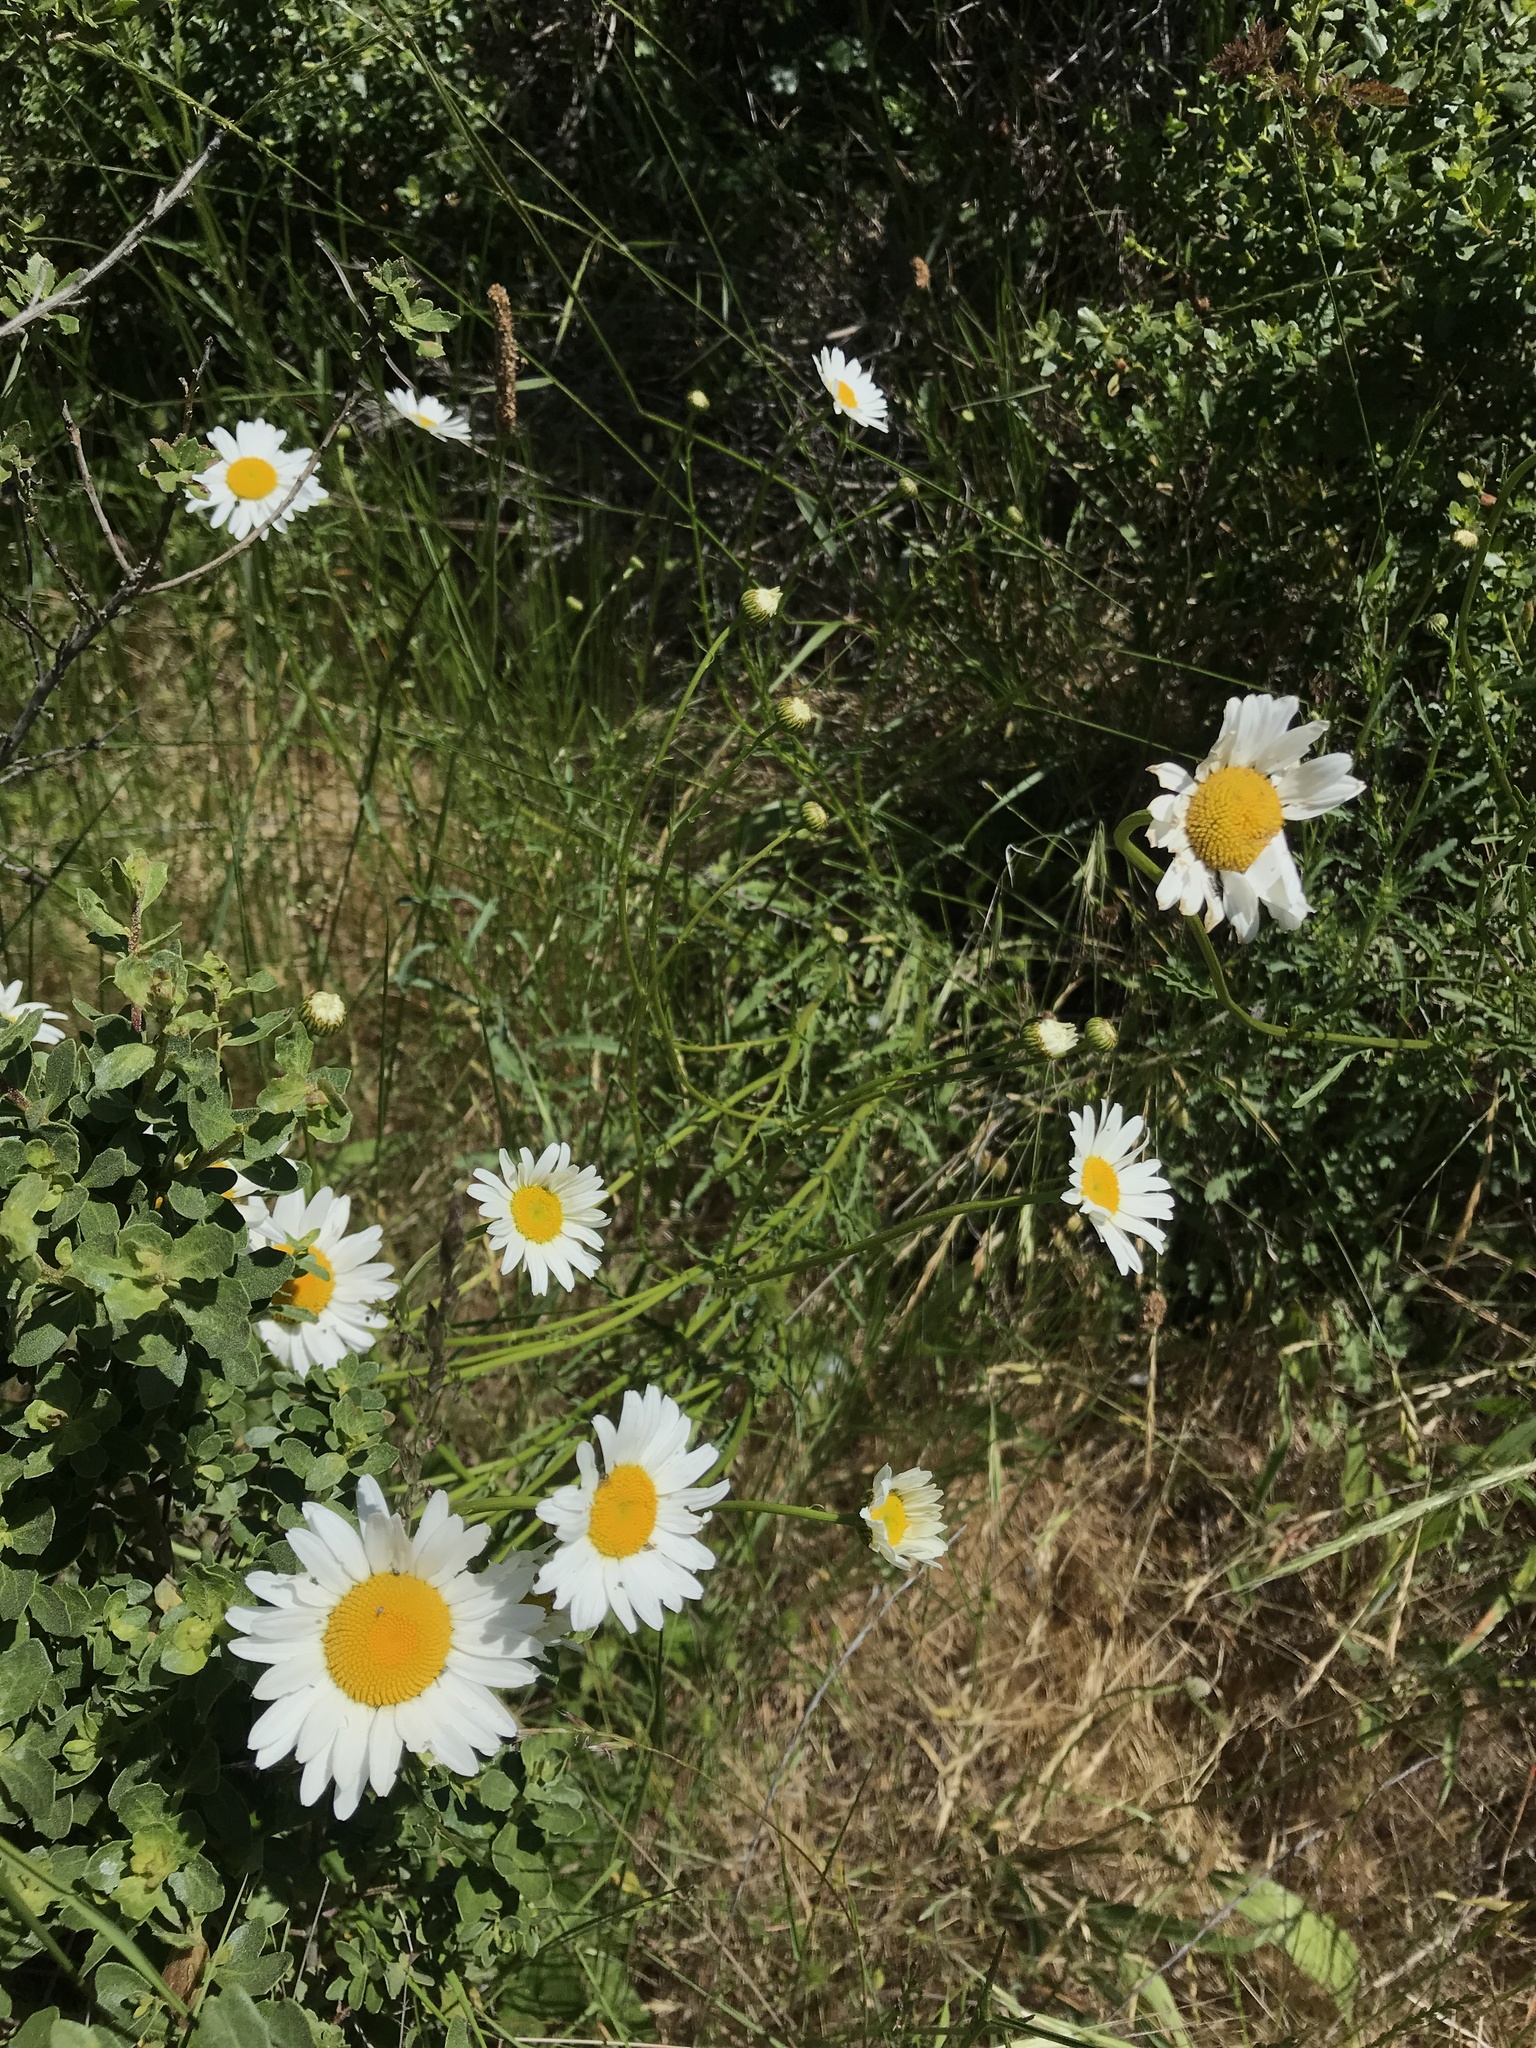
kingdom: Plantae
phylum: Tracheophyta
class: Magnoliopsida
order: Asterales
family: Asteraceae
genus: Leucanthemum
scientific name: Leucanthemum vulgare
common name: Oxeye daisy
